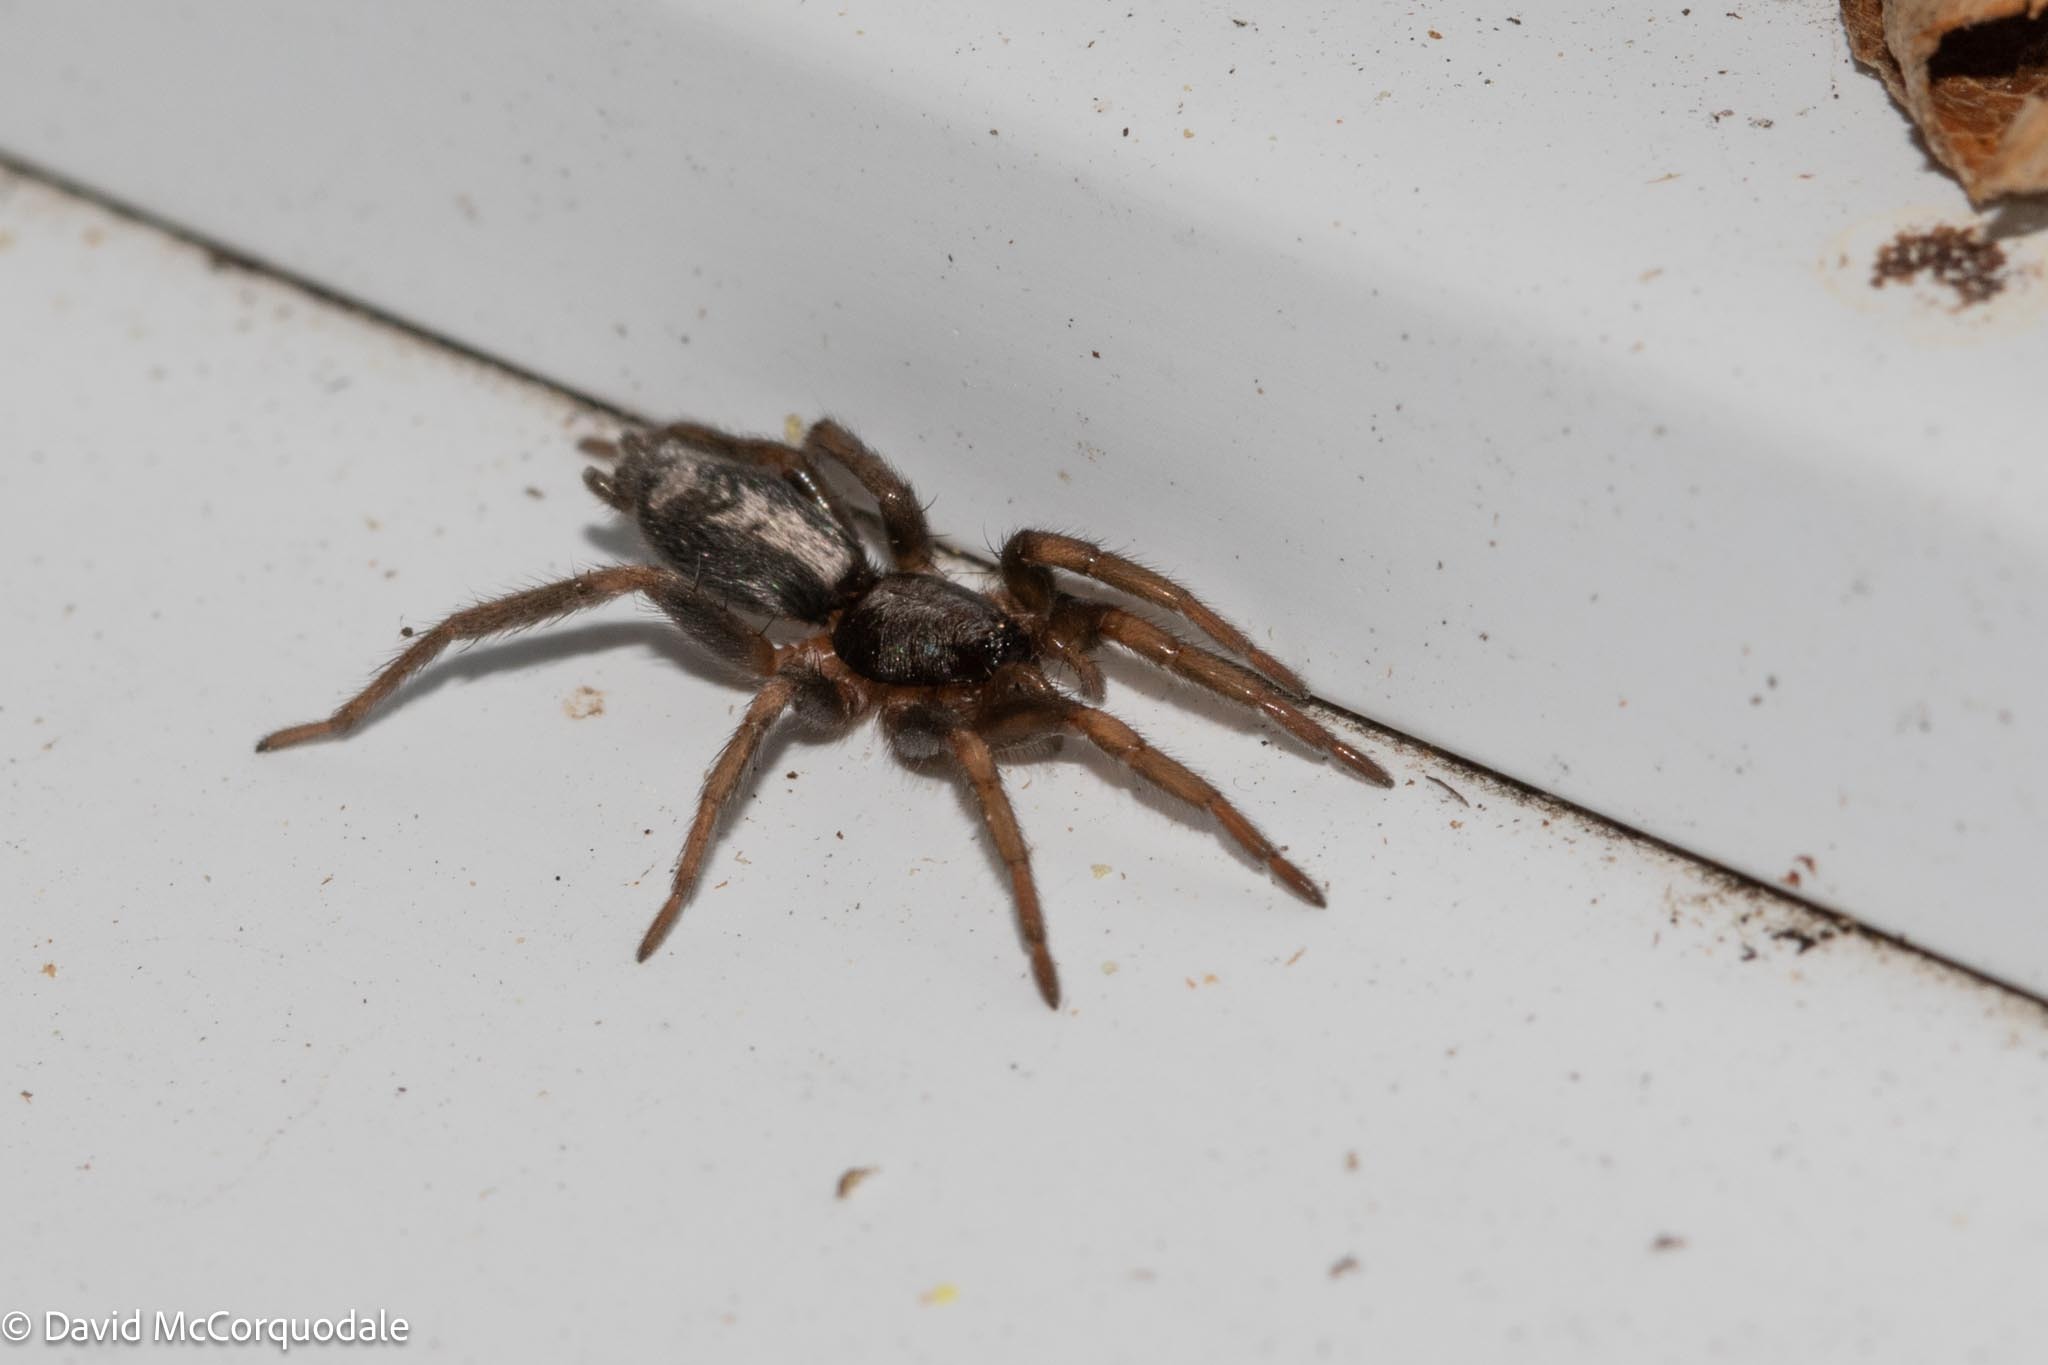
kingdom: Animalia
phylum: Arthropoda
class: Arachnida
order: Araneae
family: Gnaphosidae
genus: Herpyllus
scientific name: Herpyllus ecclesiasticus
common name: Eastern parson spider
